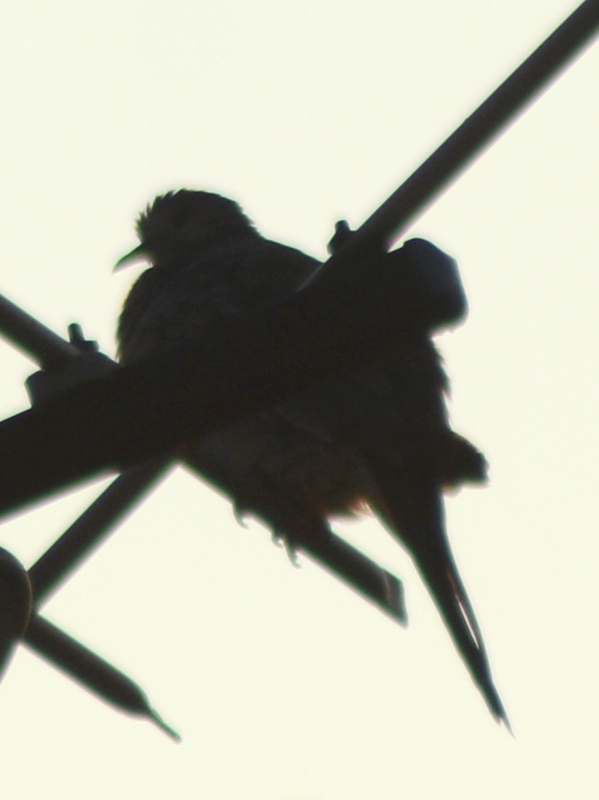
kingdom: Animalia
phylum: Chordata
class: Aves
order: Columbiformes
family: Columbidae
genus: Columbina
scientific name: Columbina inca
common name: Inca dove
